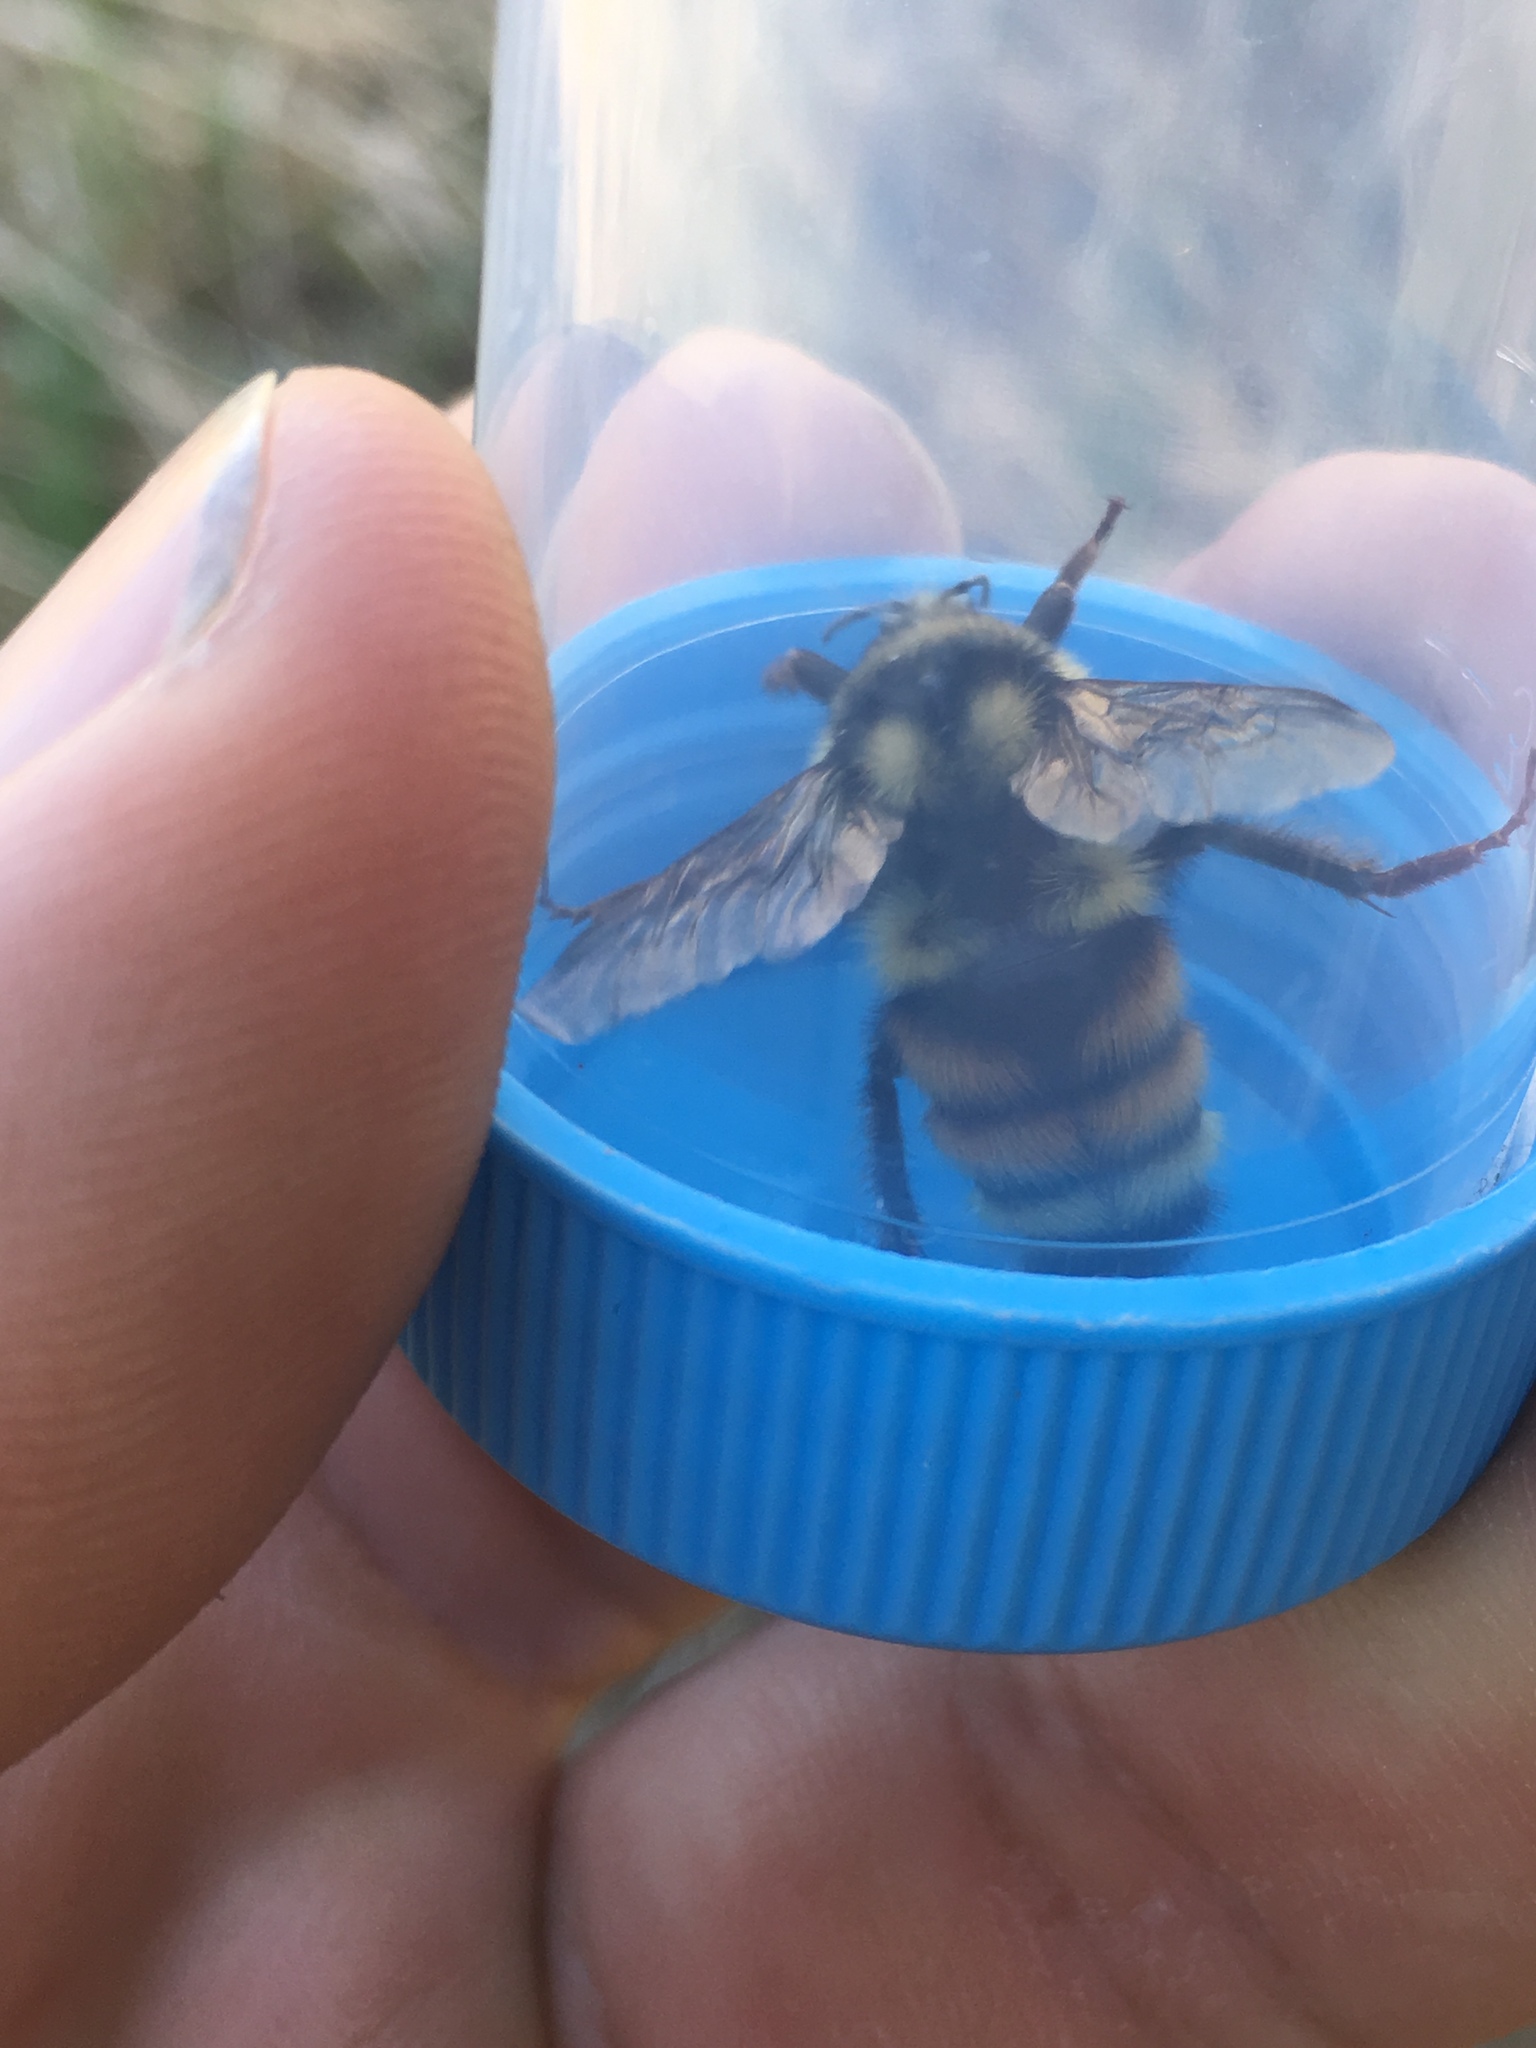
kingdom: Animalia
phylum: Arthropoda
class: Insecta
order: Hymenoptera
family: Apidae
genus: Bombus
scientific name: Bombus vancouverensis
